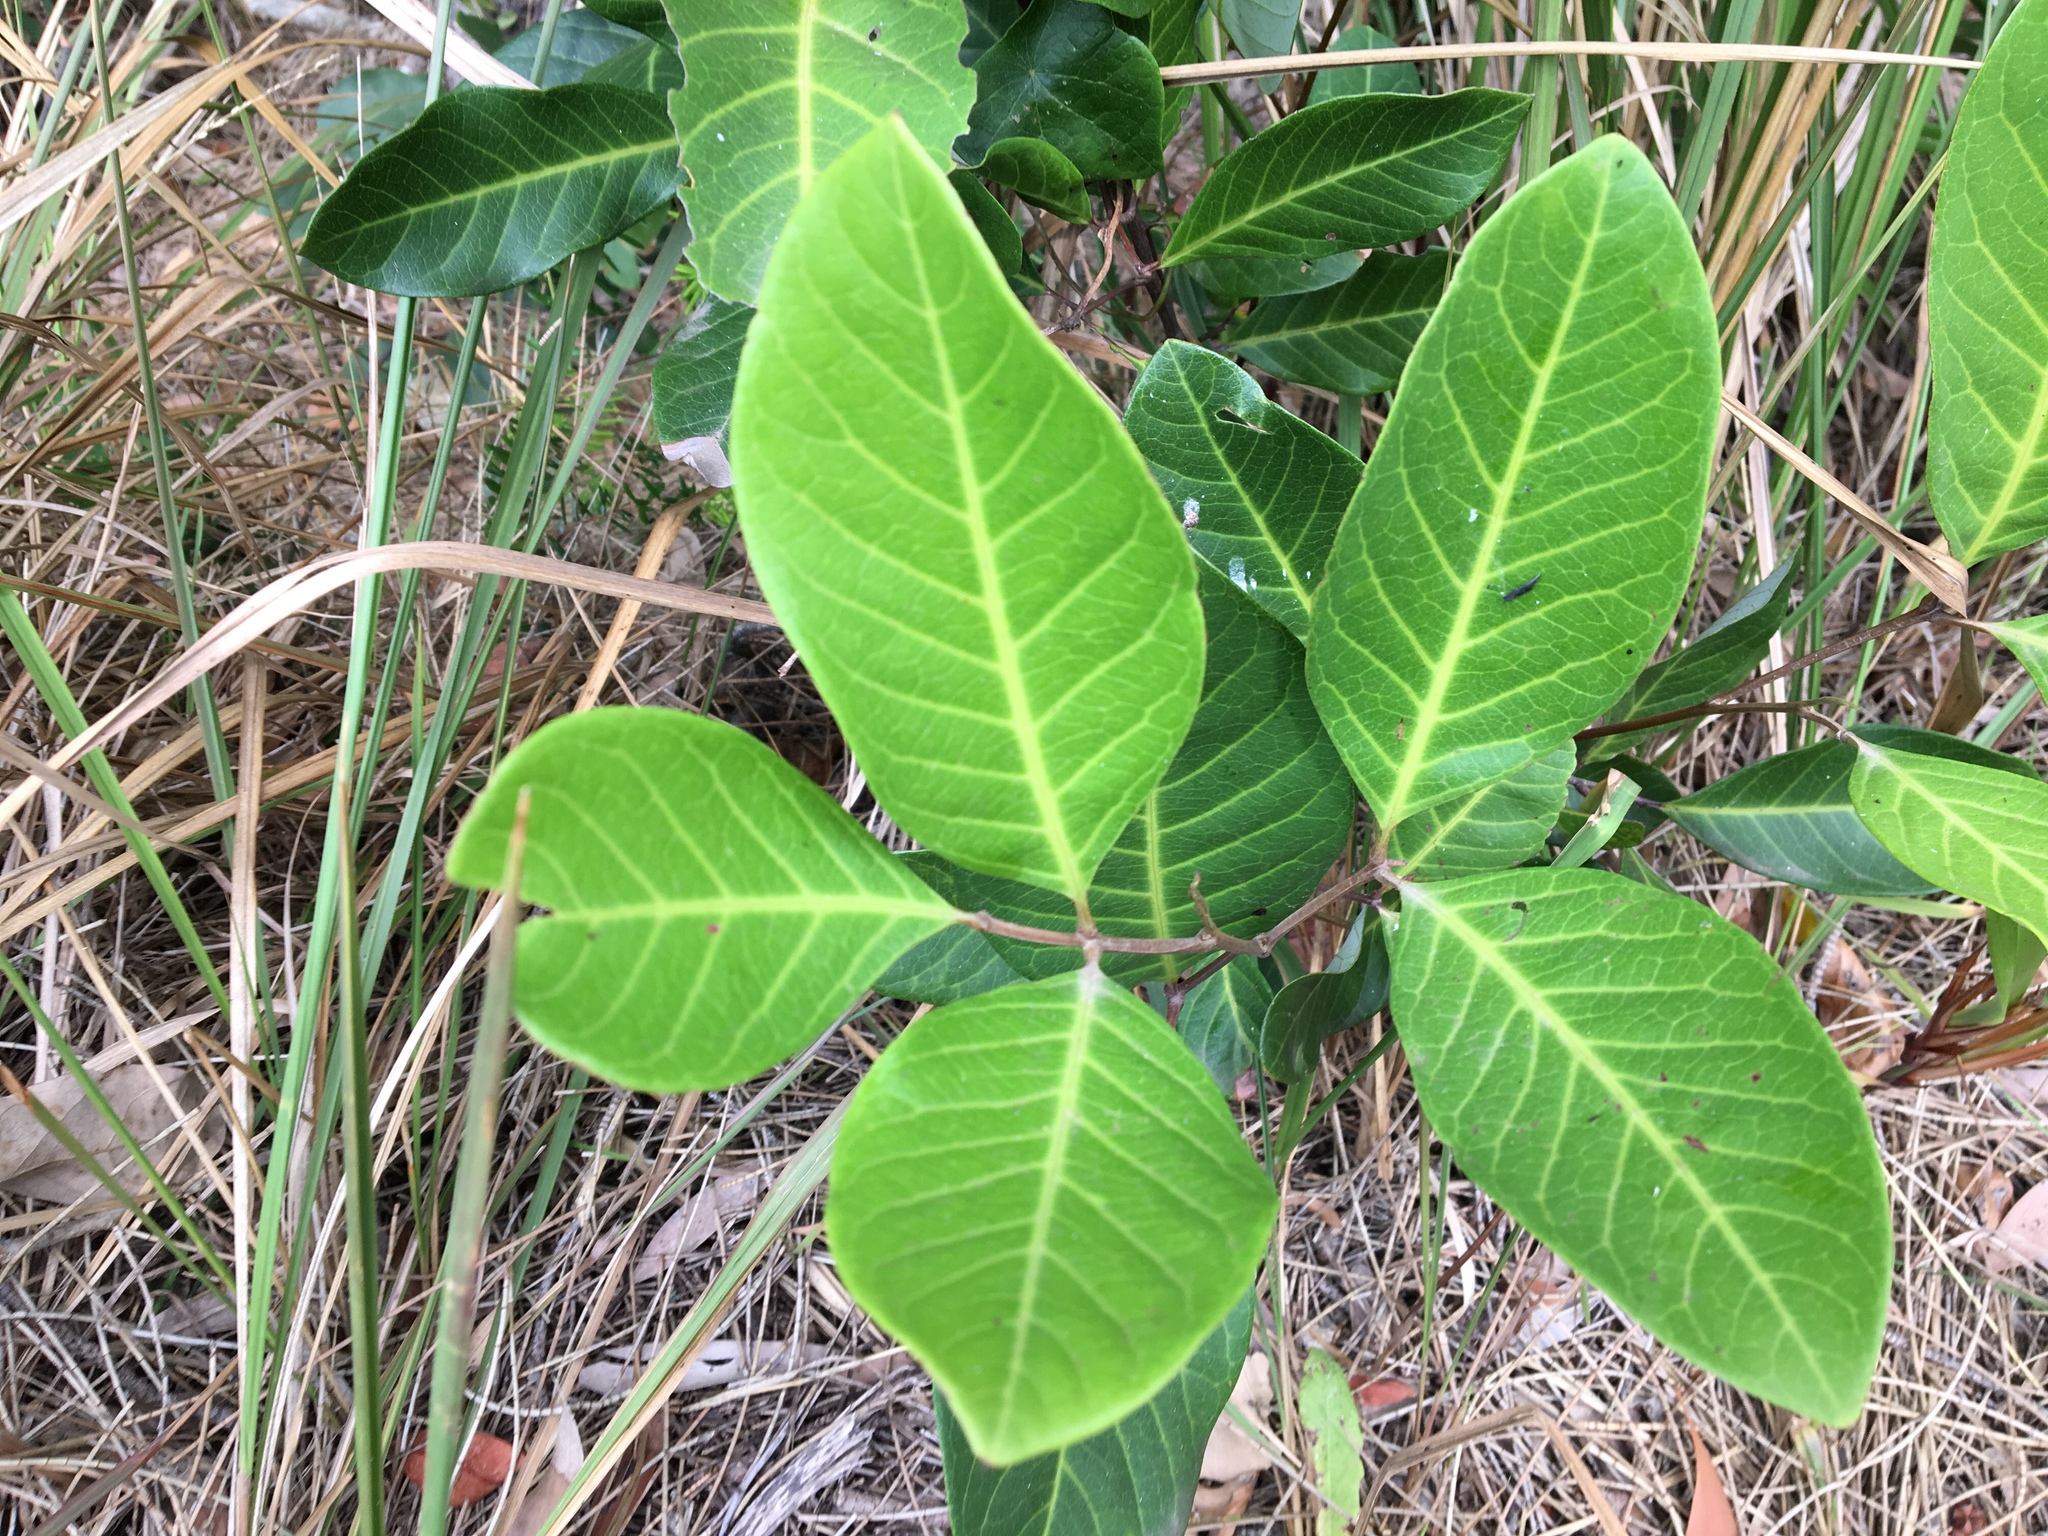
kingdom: Plantae
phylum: Tracheophyta
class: Magnoliopsida
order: Sapindales
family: Sapindaceae
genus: Alectryon
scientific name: Alectryon coriaceus
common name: Beach alectryon
